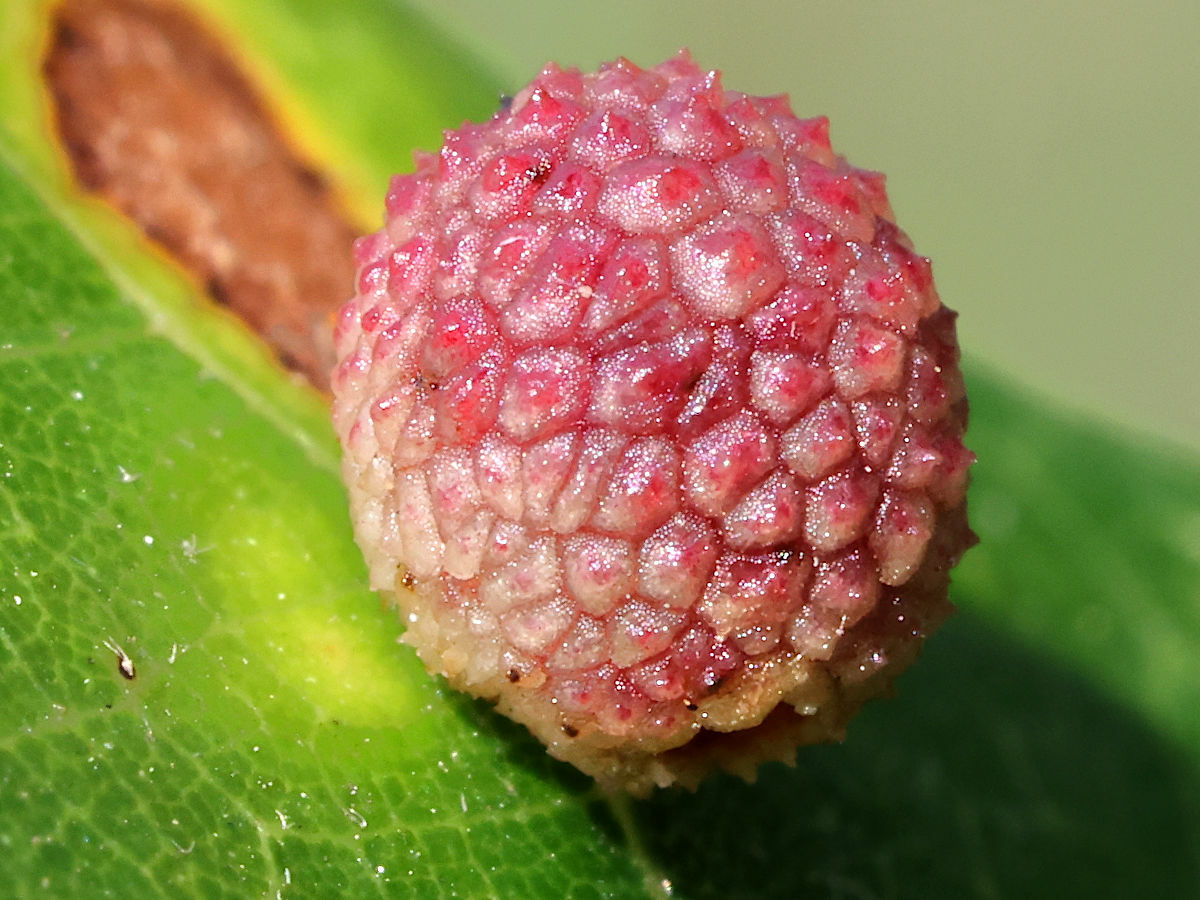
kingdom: Animalia
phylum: Arthropoda
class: Insecta
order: Hymenoptera
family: Cynipidae
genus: Acraspis
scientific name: Acraspis quercushirta
